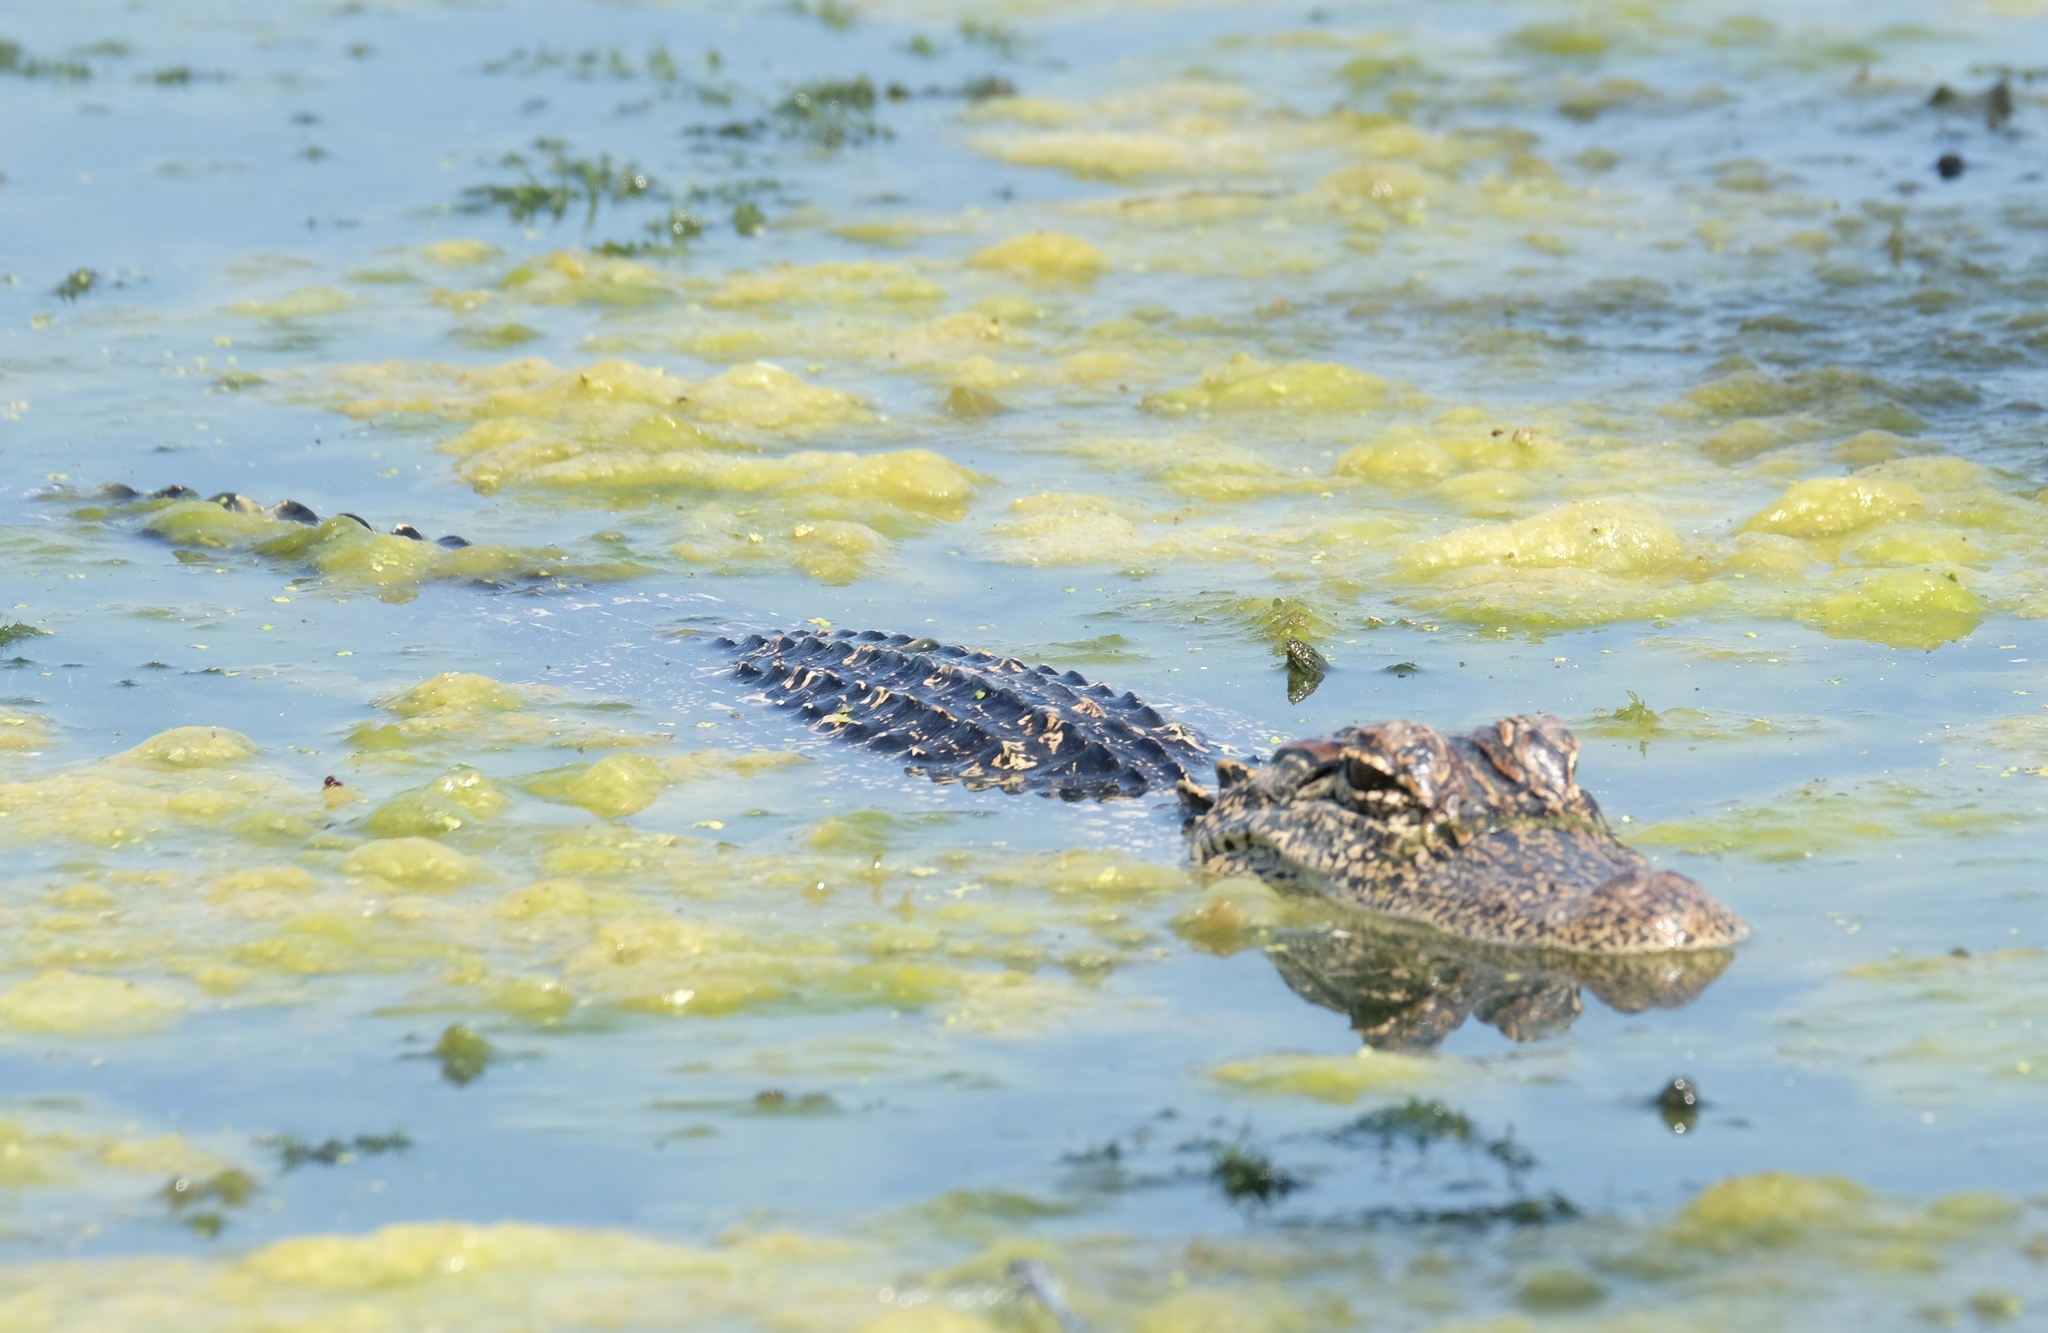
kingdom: Animalia
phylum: Chordata
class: Crocodylia
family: Alligatoridae
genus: Alligator
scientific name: Alligator mississippiensis
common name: American alligator
